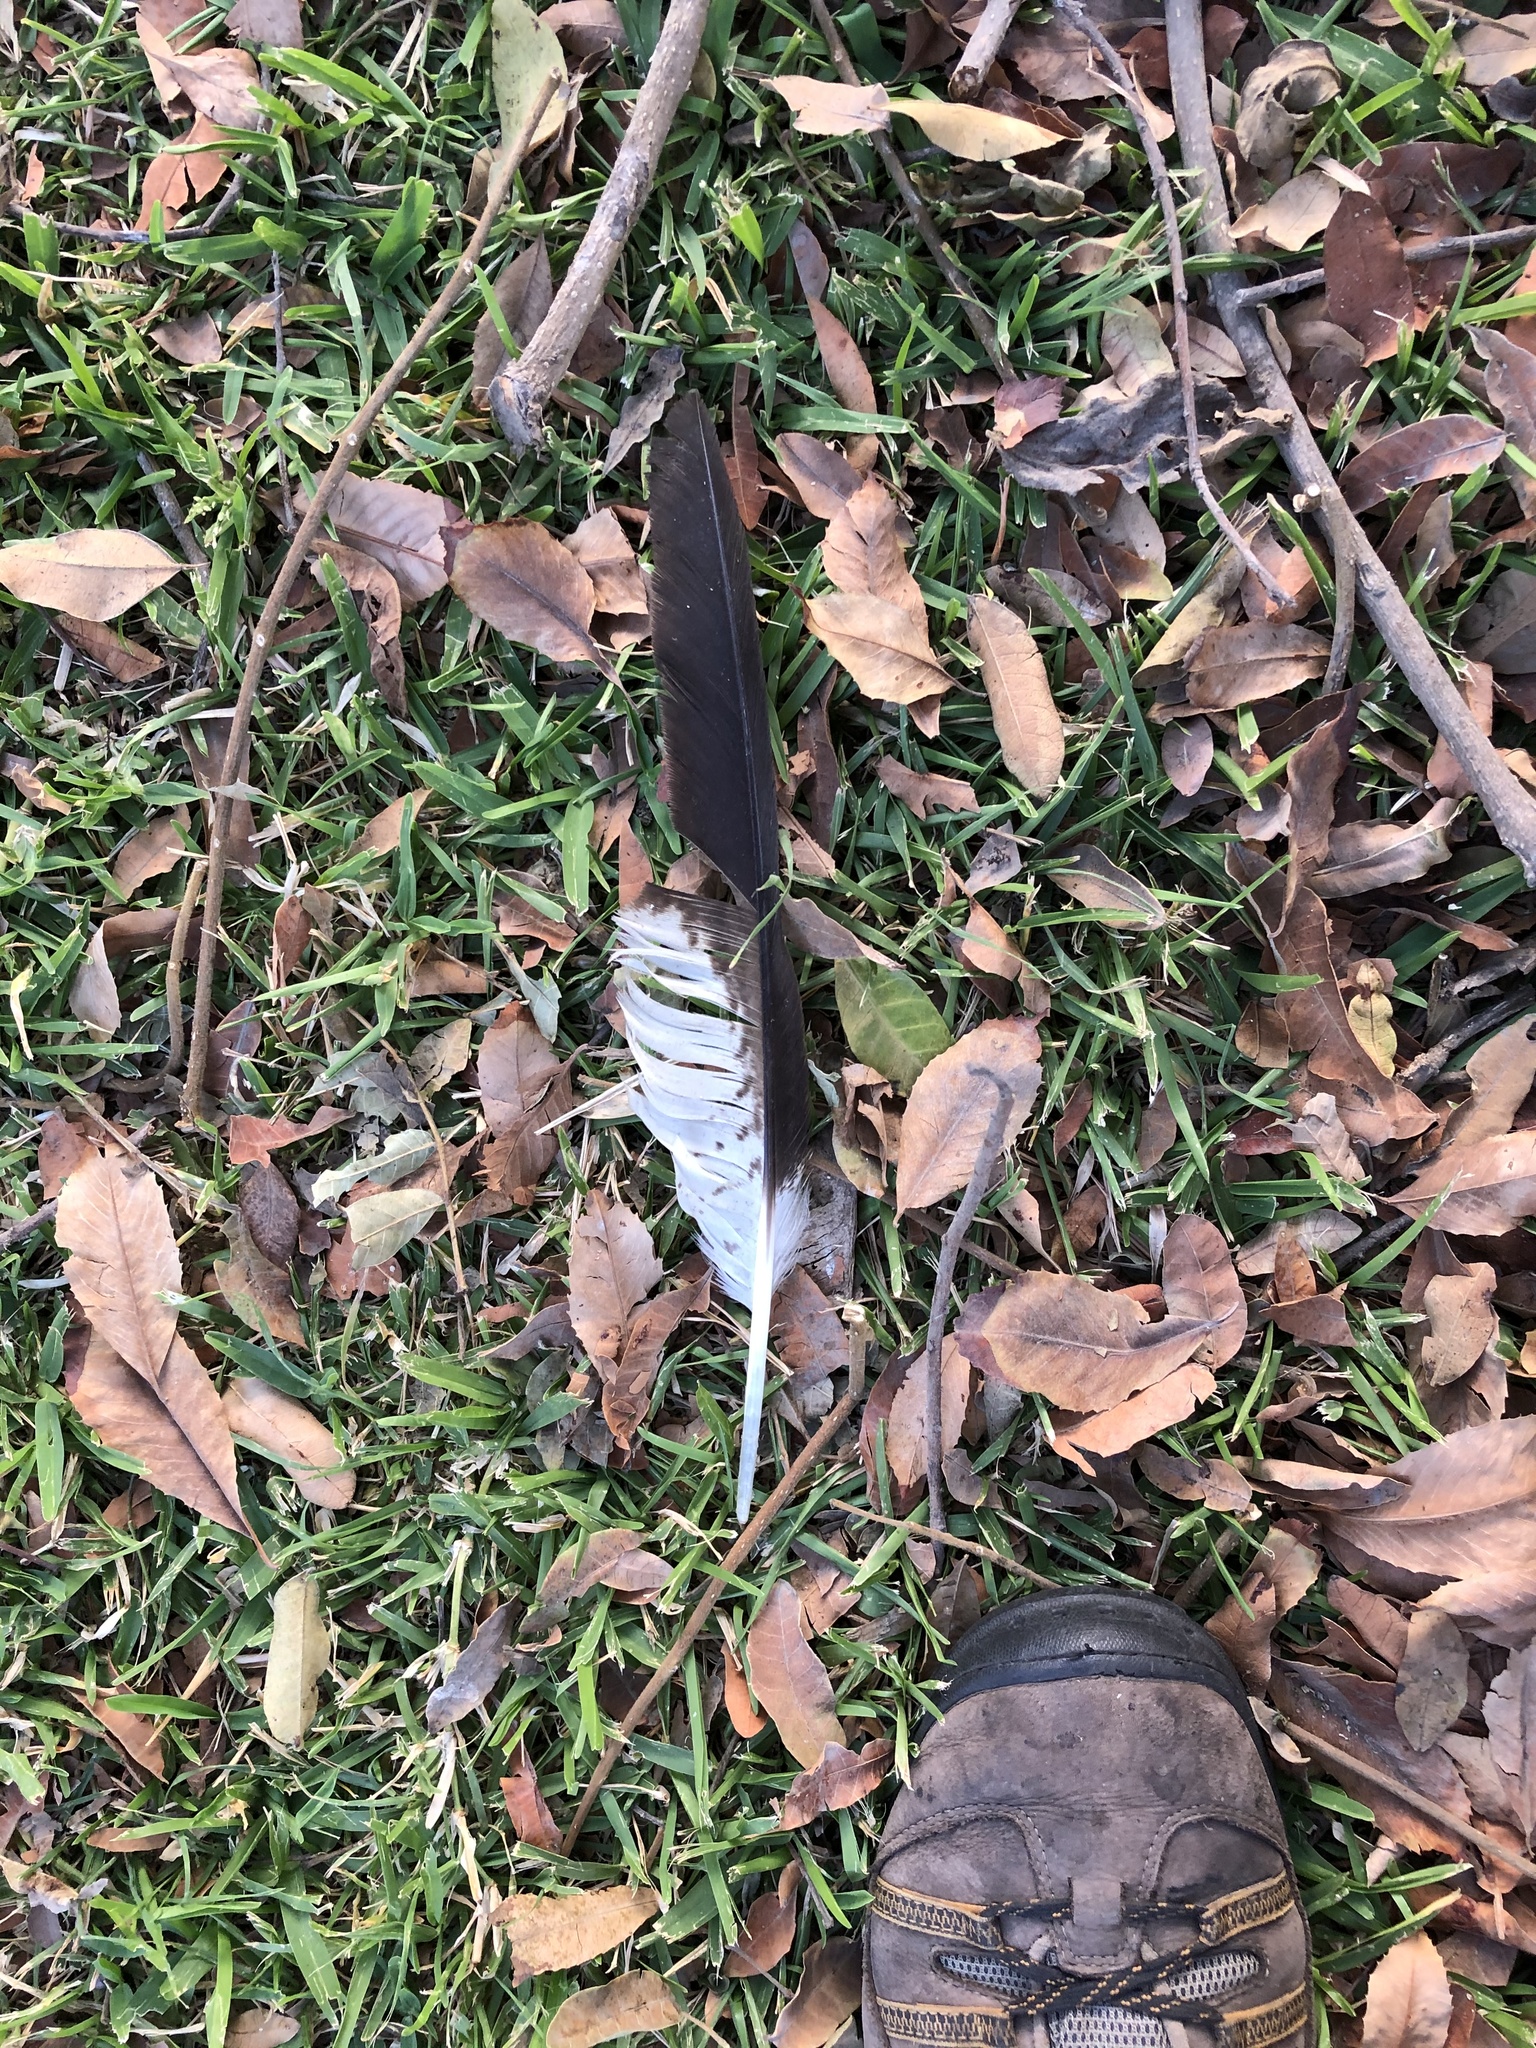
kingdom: Animalia
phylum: Chordata
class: Aves
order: Accipitriformes
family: Accipitridae
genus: Parabuteo
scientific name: Parabuteo unicinctus
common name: Harris's hawk
